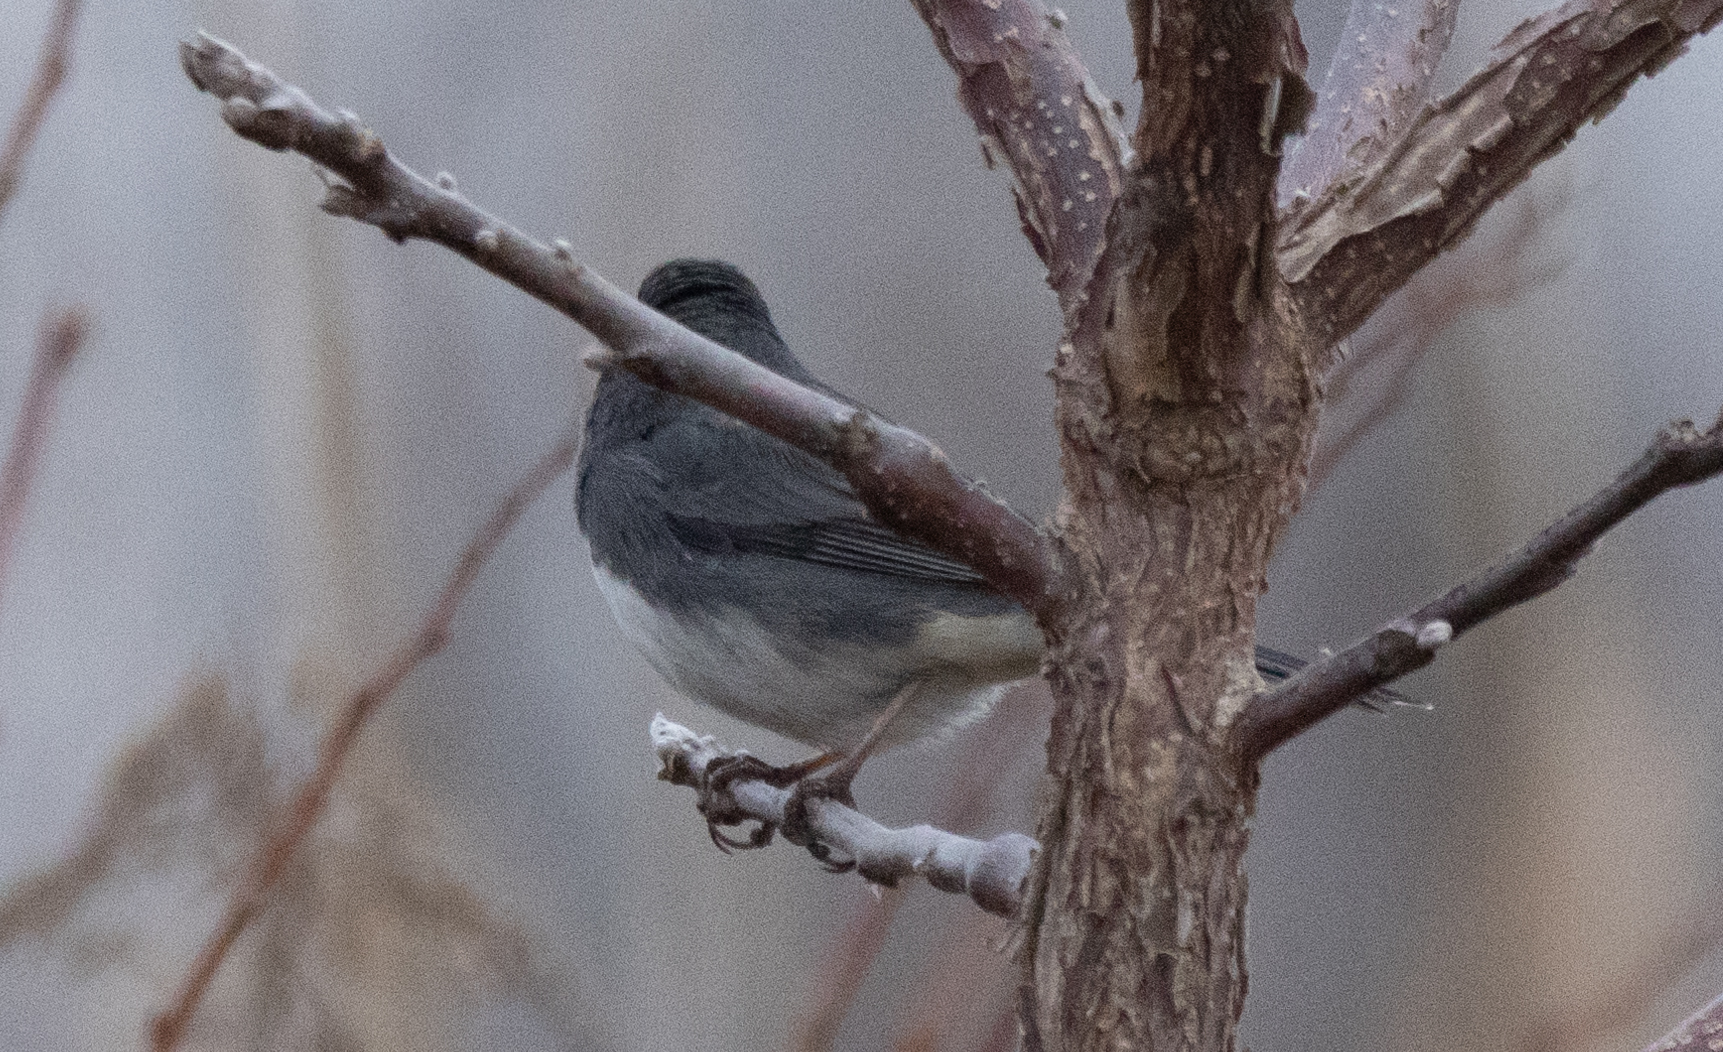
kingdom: Animalia
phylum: Chordata
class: Aves
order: Passeriformes
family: Passerellidae
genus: Junco
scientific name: Junco hyemalis
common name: Dark-eyed junco
